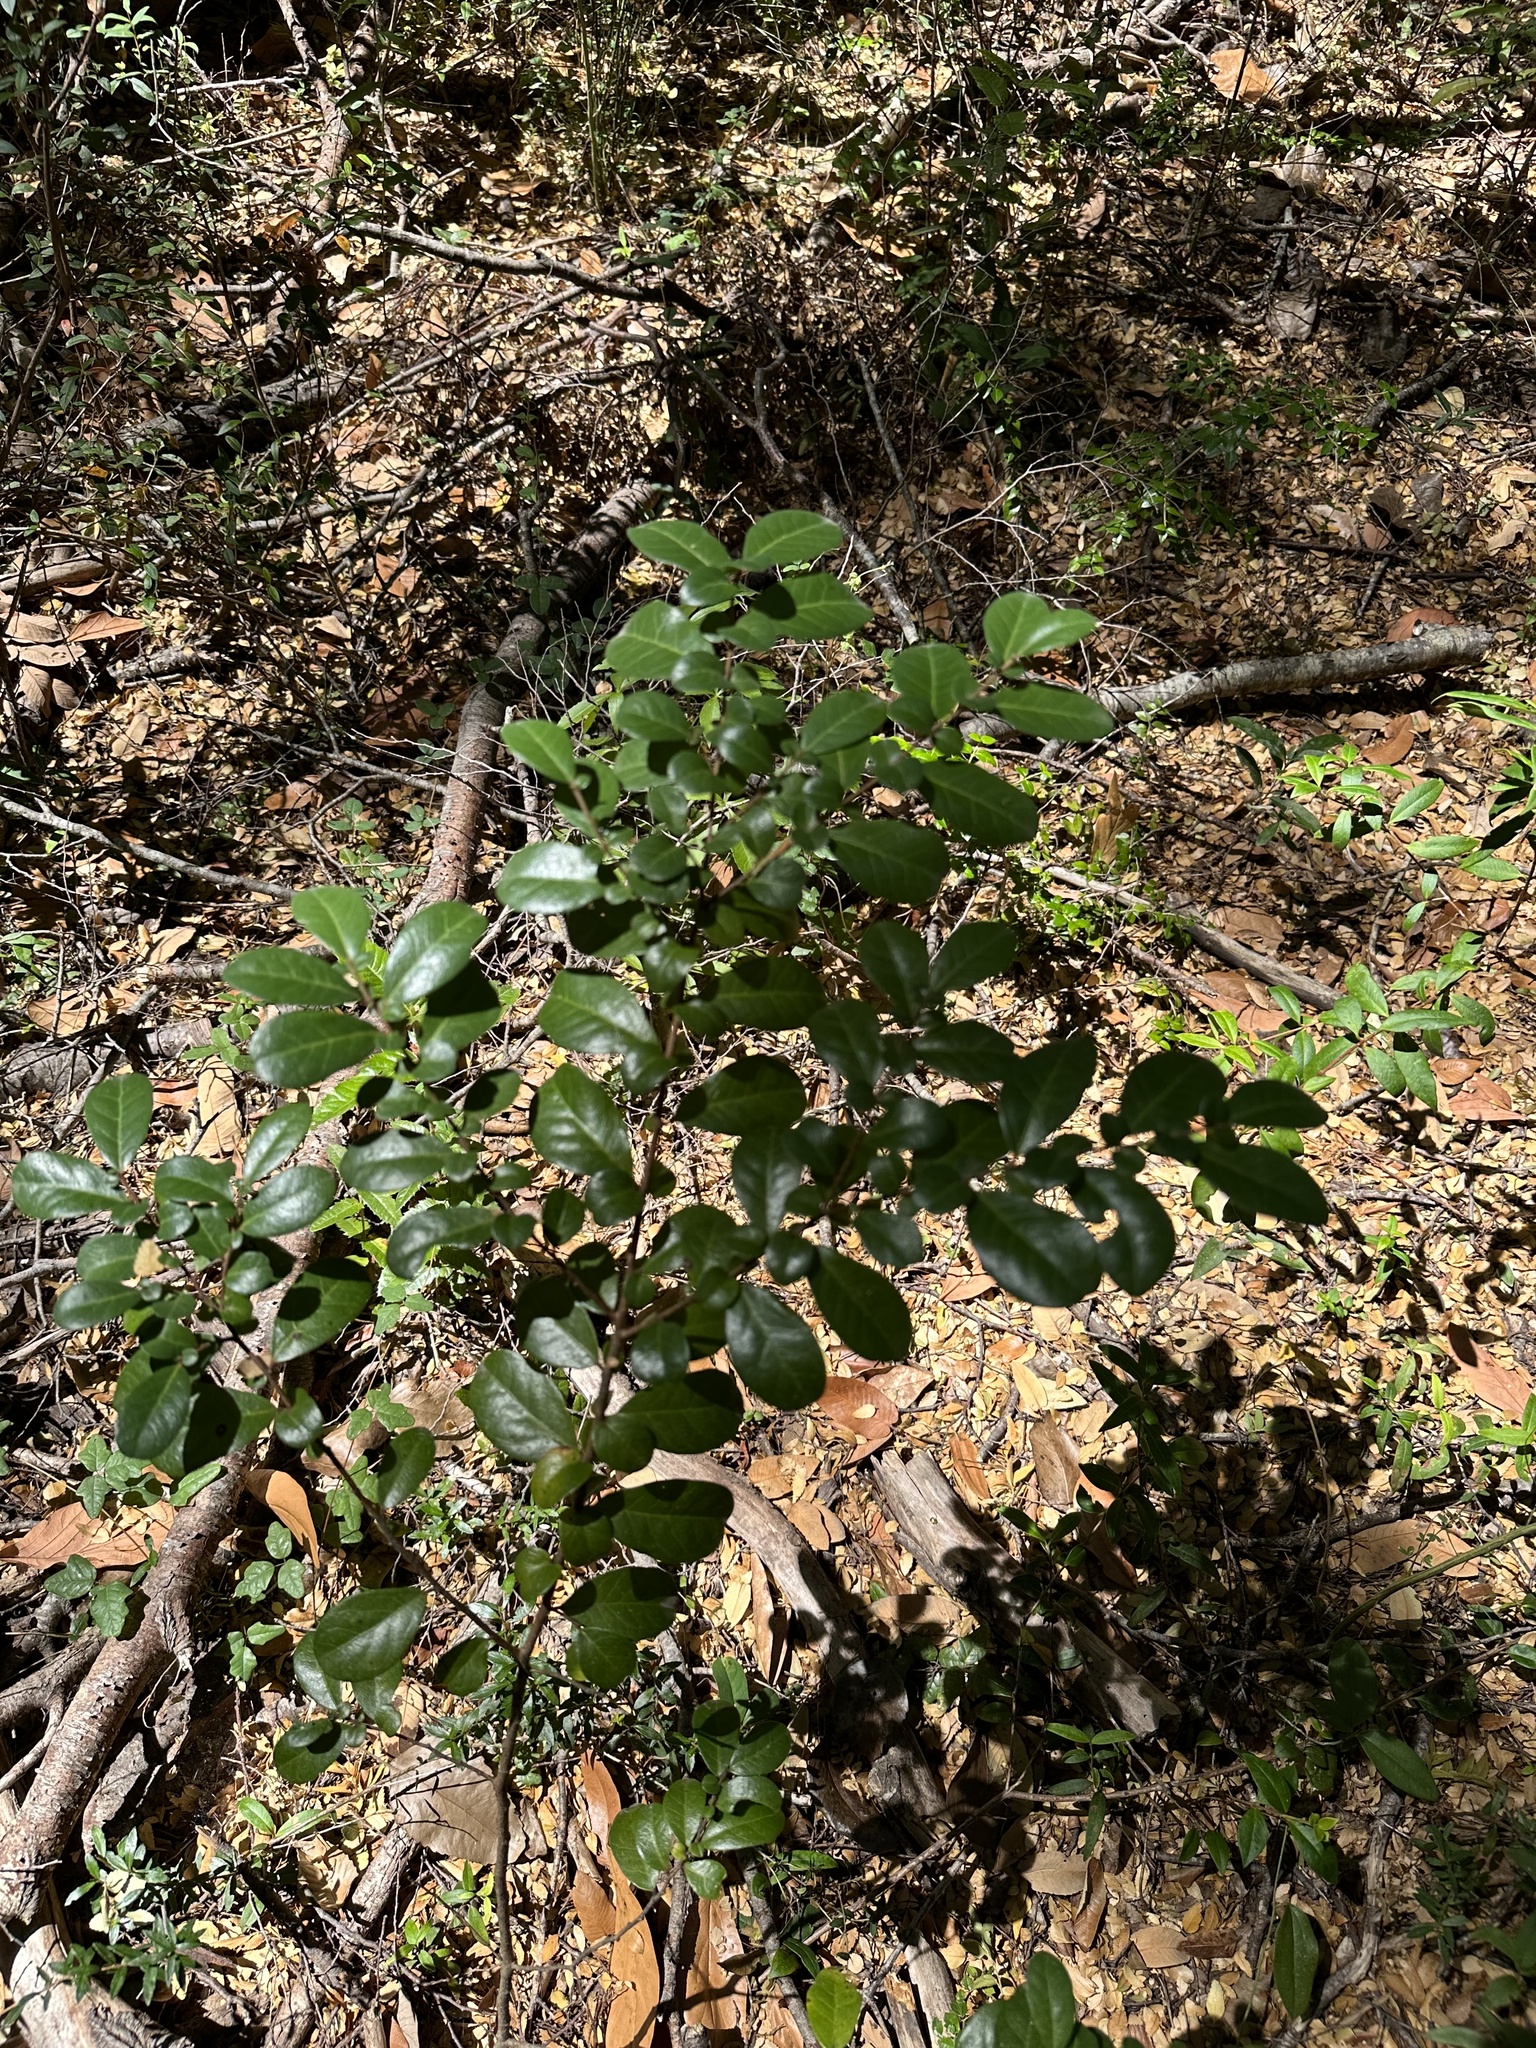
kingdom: Plantae
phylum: Tracheophyta
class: Magnoliopsida
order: Malpighiales
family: Salicaceae
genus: Azara
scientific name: Azara integrifolia
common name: Goldspire
